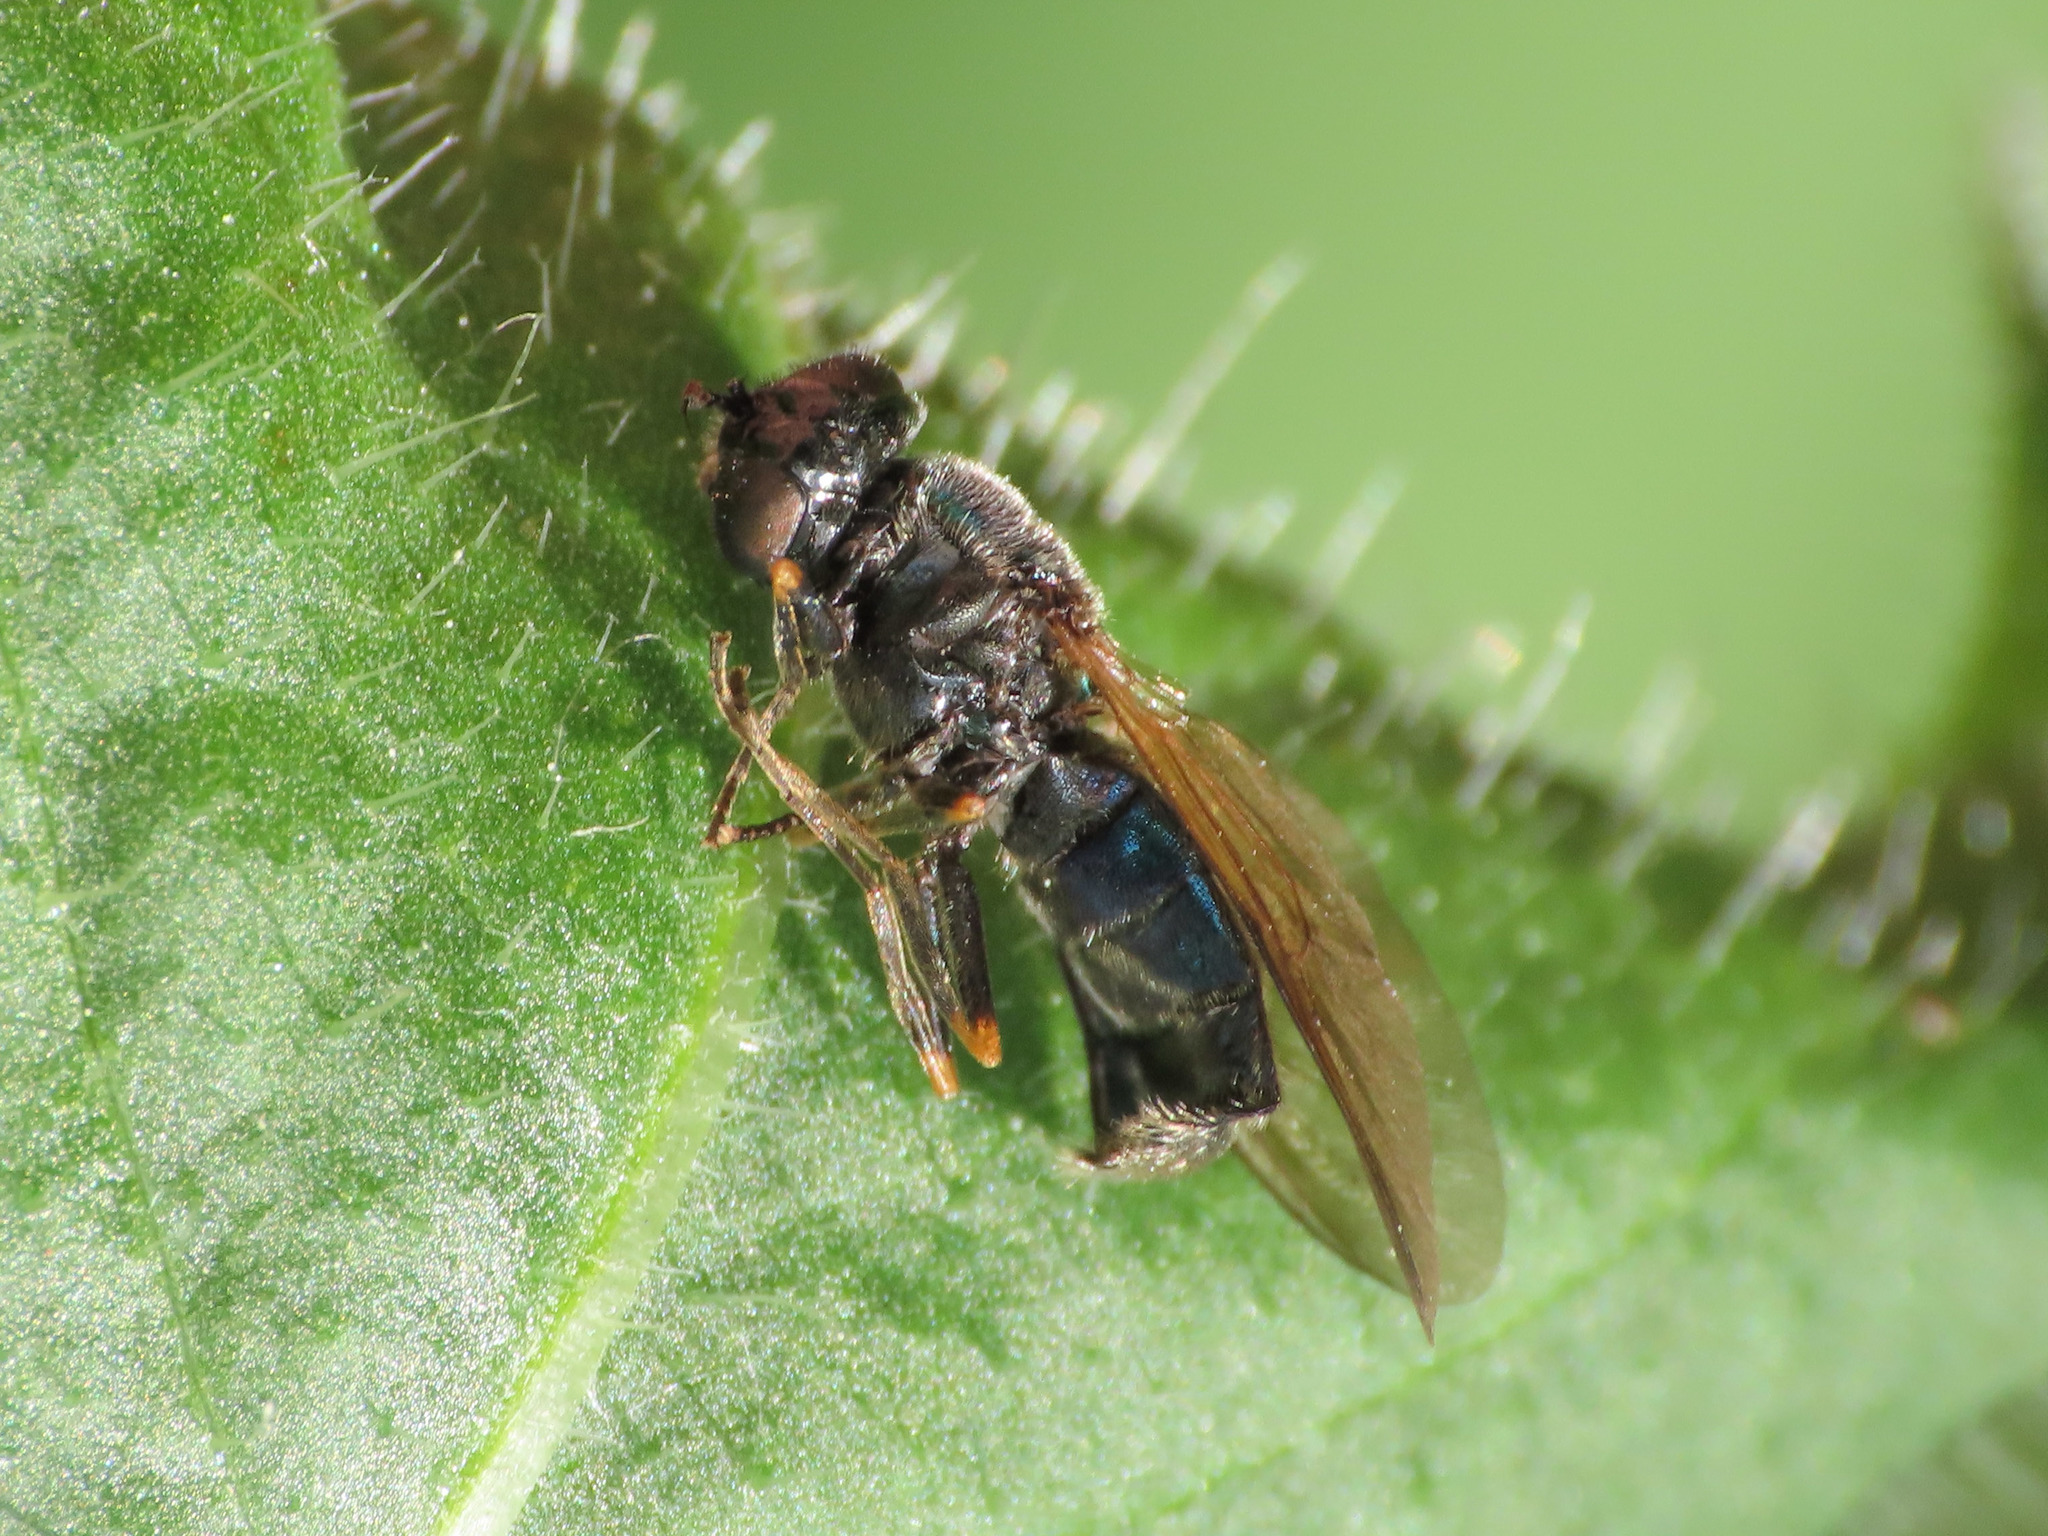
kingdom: Animalia
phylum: Arthropoda
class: Insecta
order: Diptera
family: Stratiomyidae
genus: Chloromyia
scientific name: Chloromyia formosa
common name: Soldier fly
